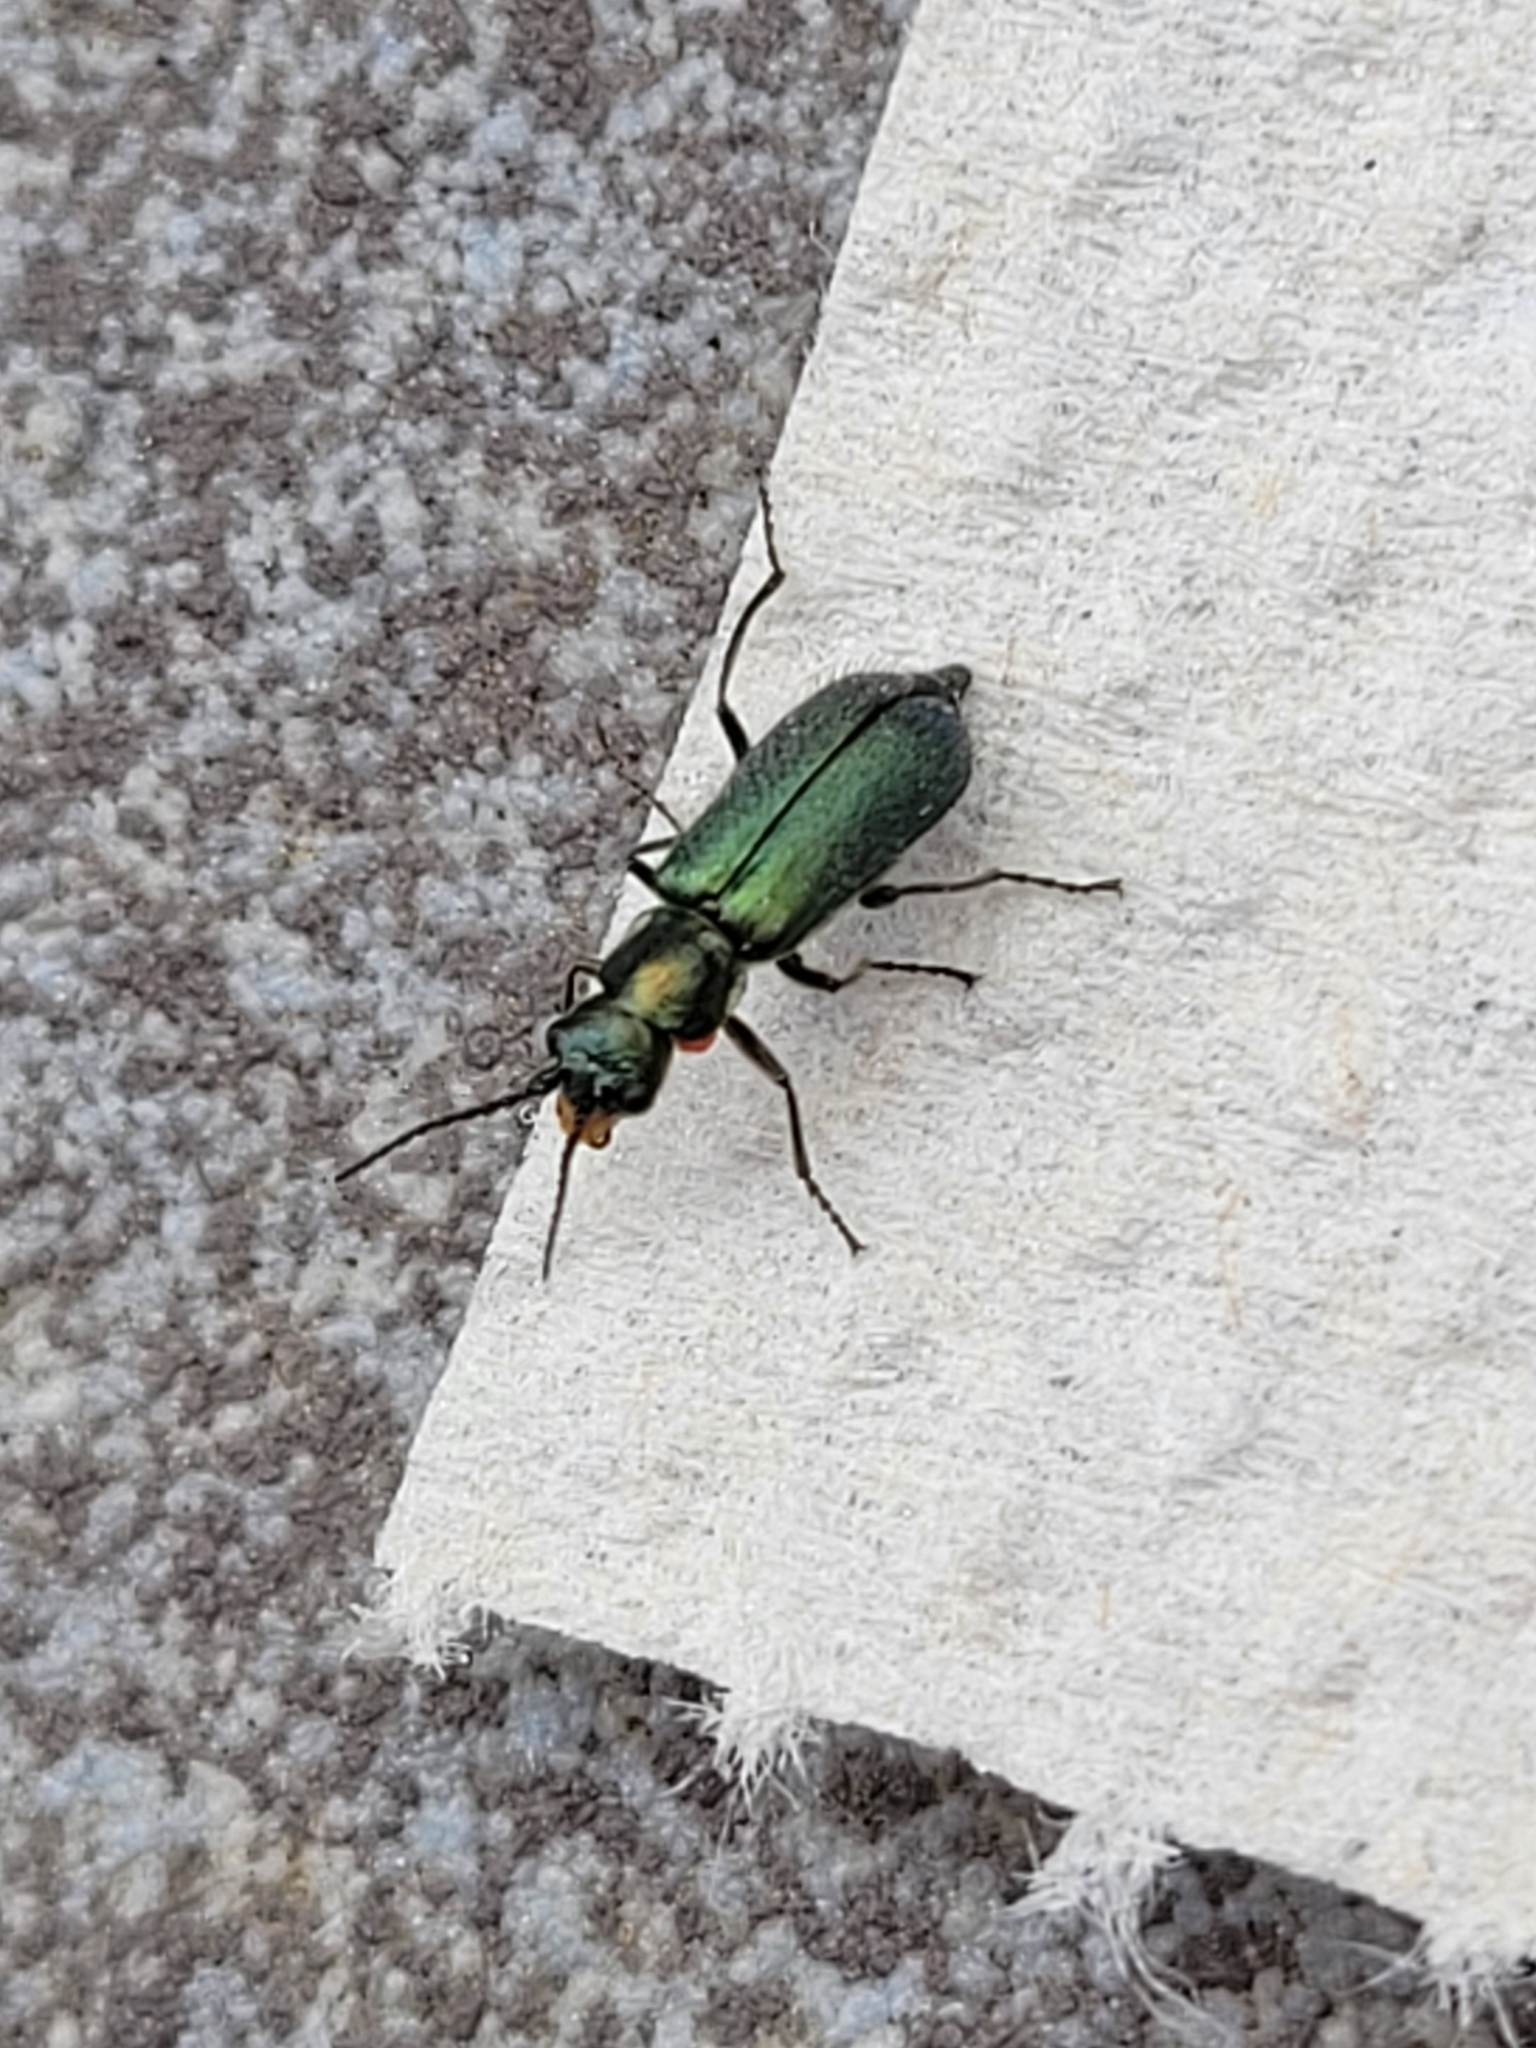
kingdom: Animalia
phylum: Arthropoda
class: Insecta
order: Coleoptera
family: Malachiidae
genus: Cordylepherus
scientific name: Cordylepherus viridis
